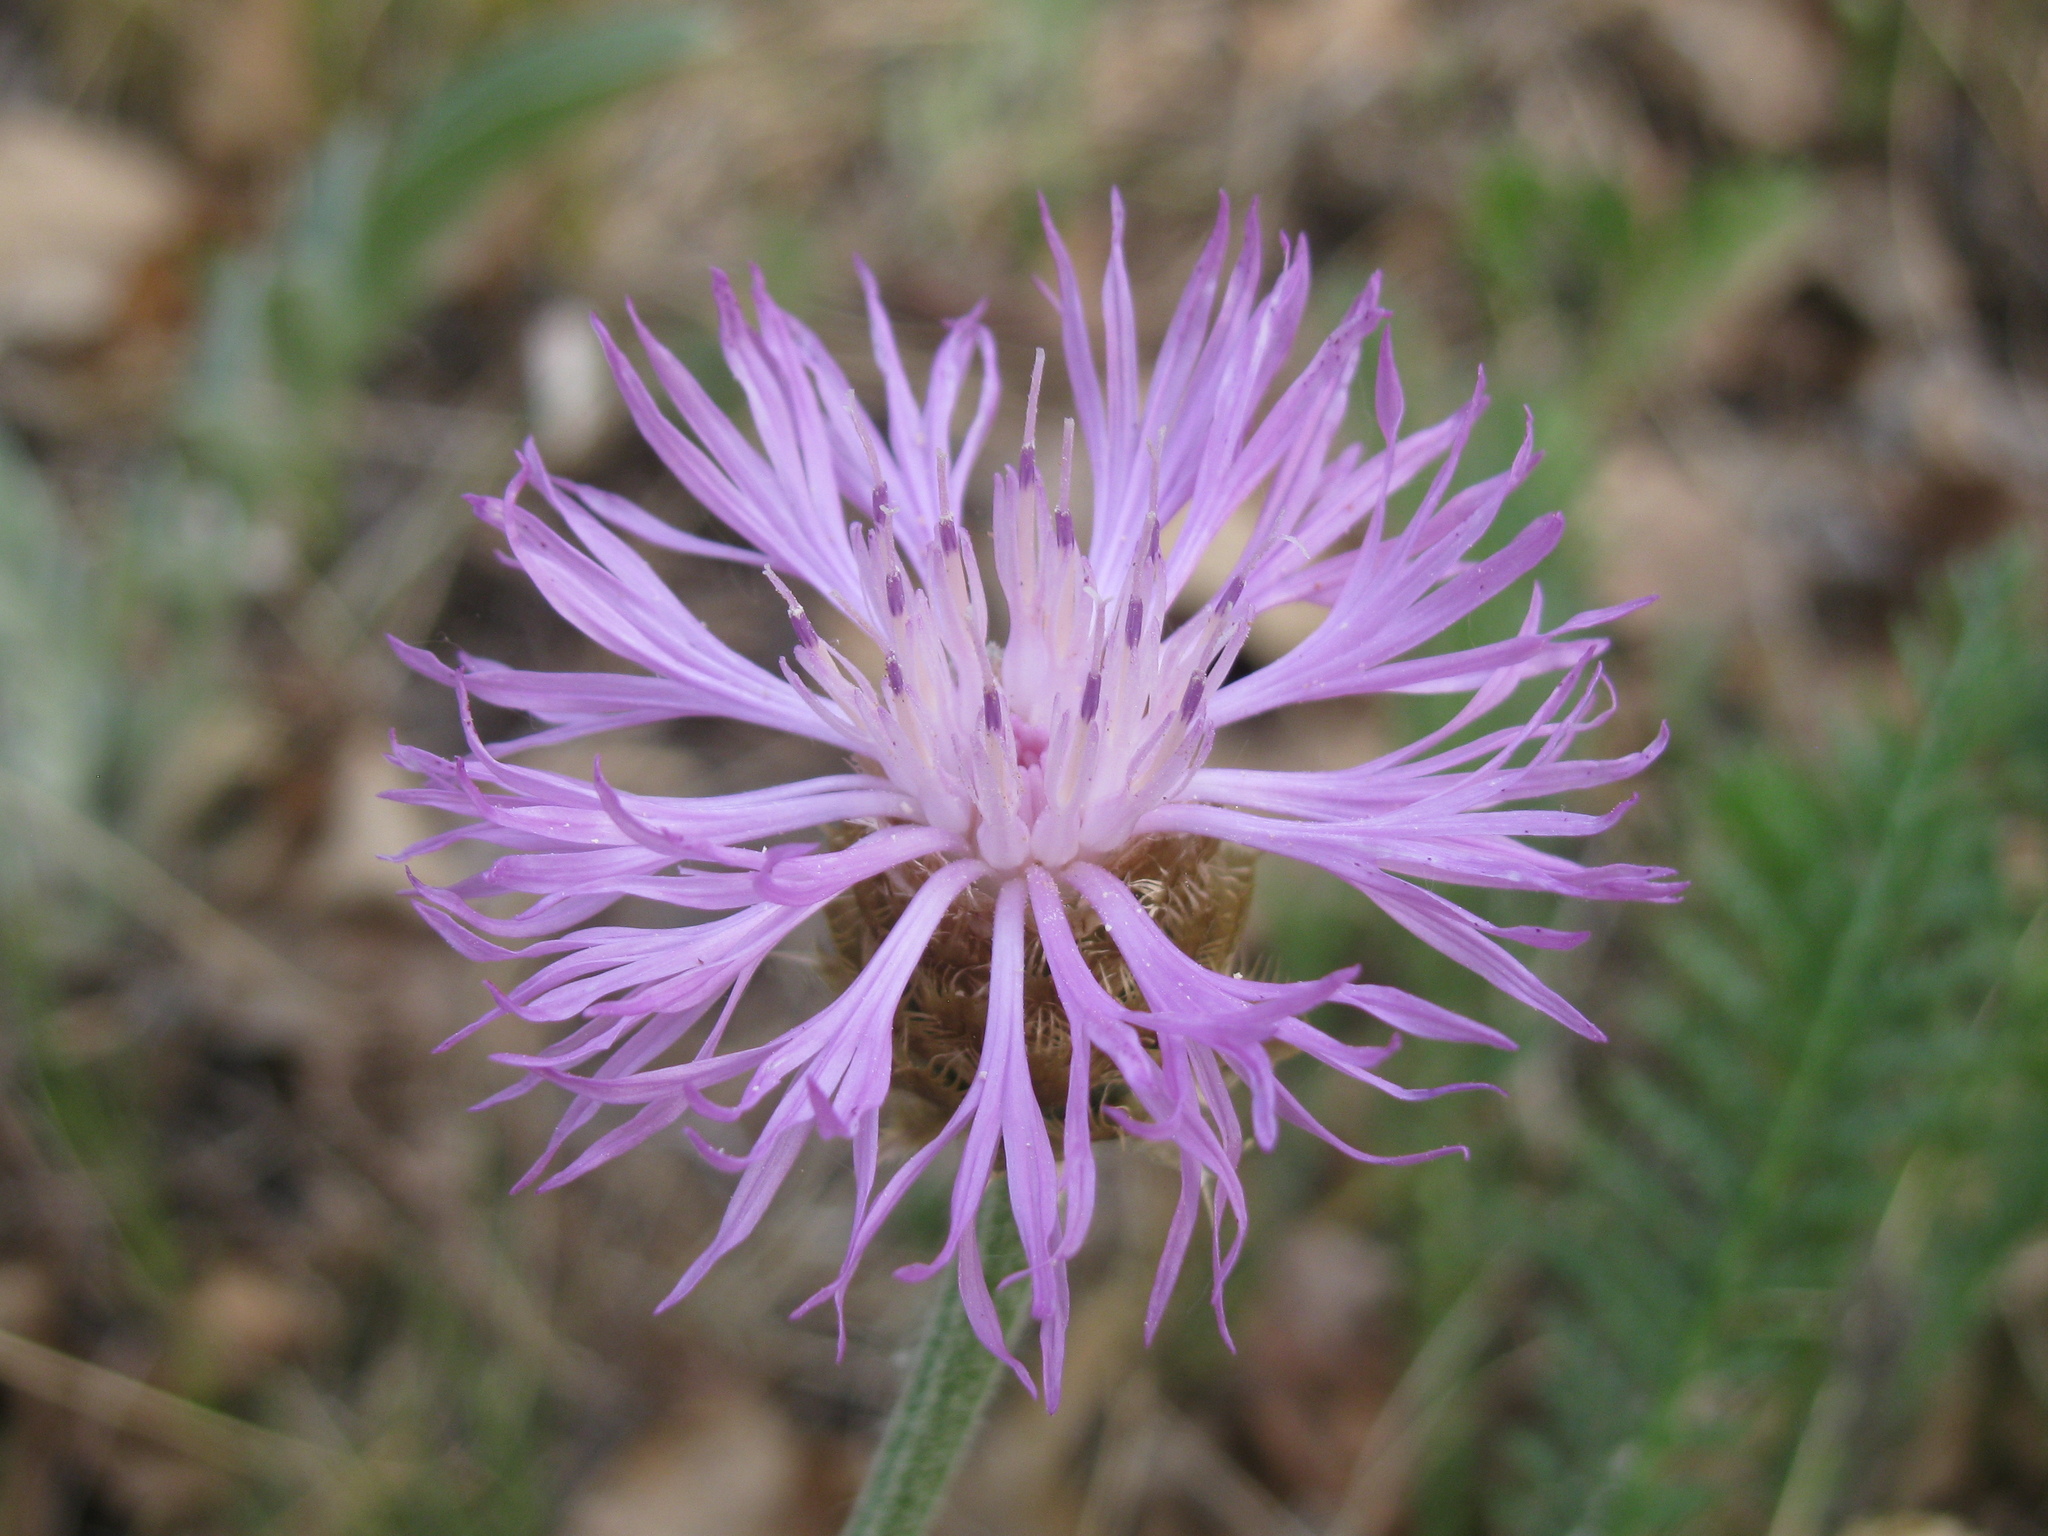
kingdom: Plantae
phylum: Tracheophyta
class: Magnoliopsida
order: Asterales
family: Asteraceae
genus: Psephellus
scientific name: Psephellus sibiricus
